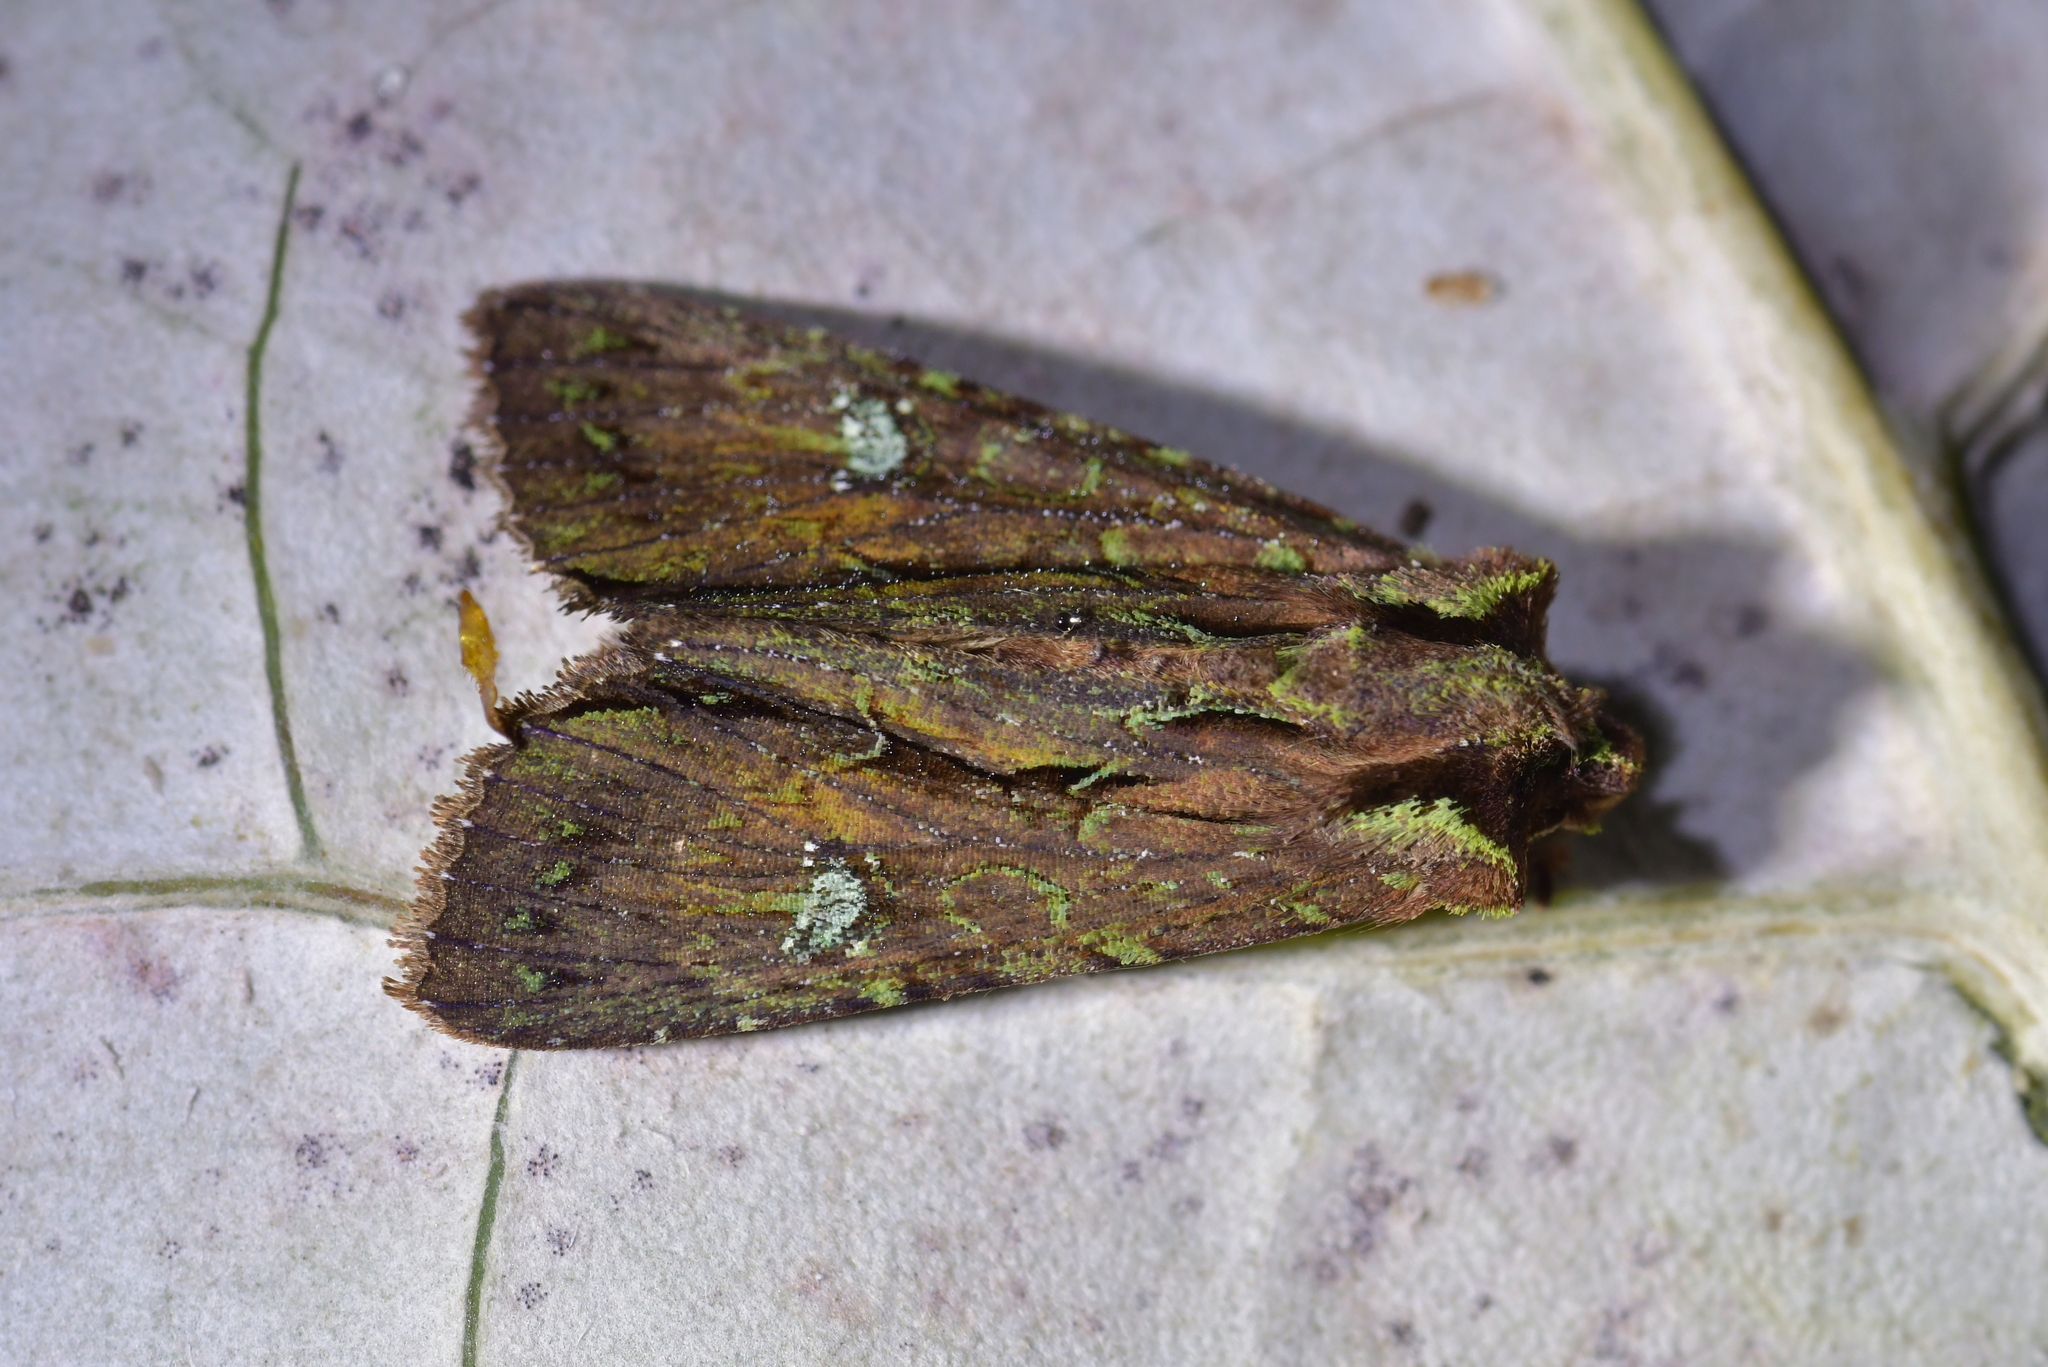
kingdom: Animalia
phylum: Arthropoda
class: Insecta
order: Lepidoptera
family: Noctuidae
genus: Meterana
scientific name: Meterana diatmeta
